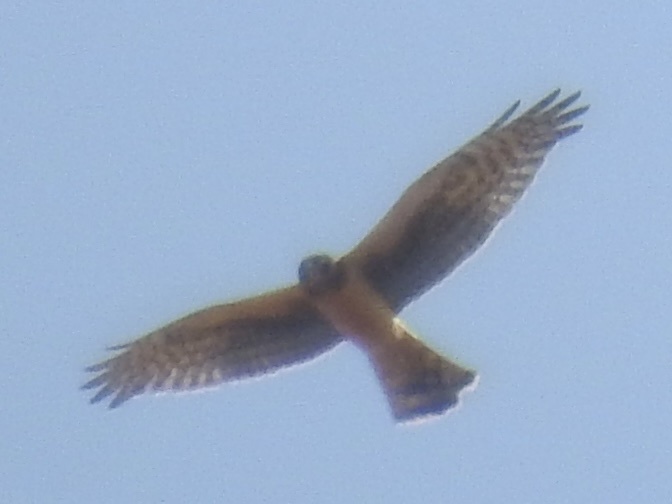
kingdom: Animalia
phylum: Chordata
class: Aves
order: Accipitriformes
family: Accipitridae
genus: Circus
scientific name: Circus cyaneus
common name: Hen harrier
